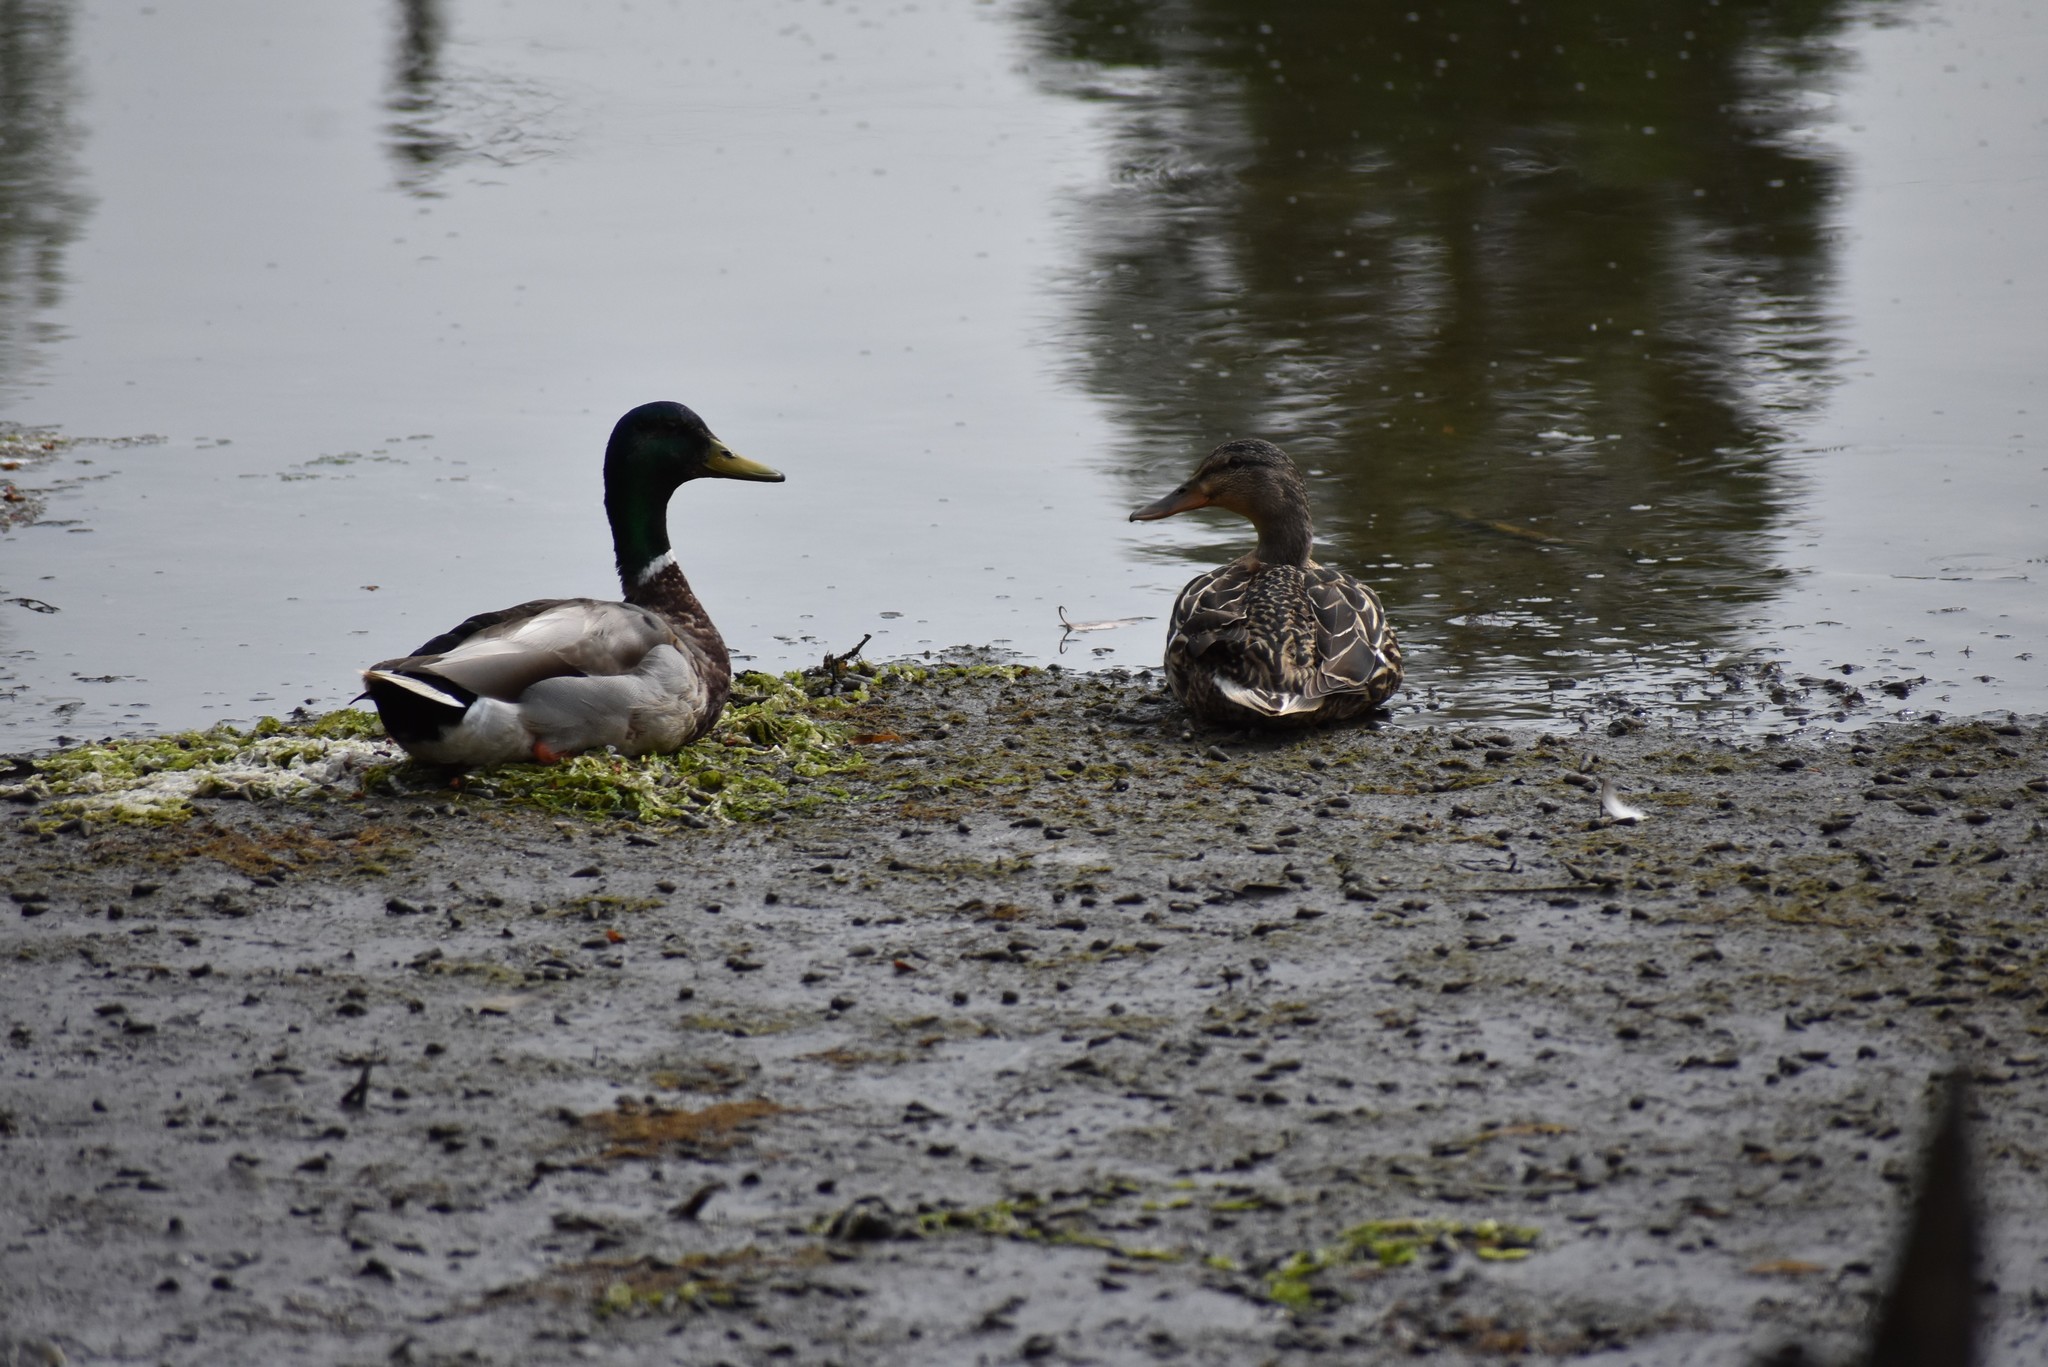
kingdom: Animalia
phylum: Chordata
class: Aves
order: Anseriformes
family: Anatidae
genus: Anas
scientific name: Anas platyrhynchos
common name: Mallard
